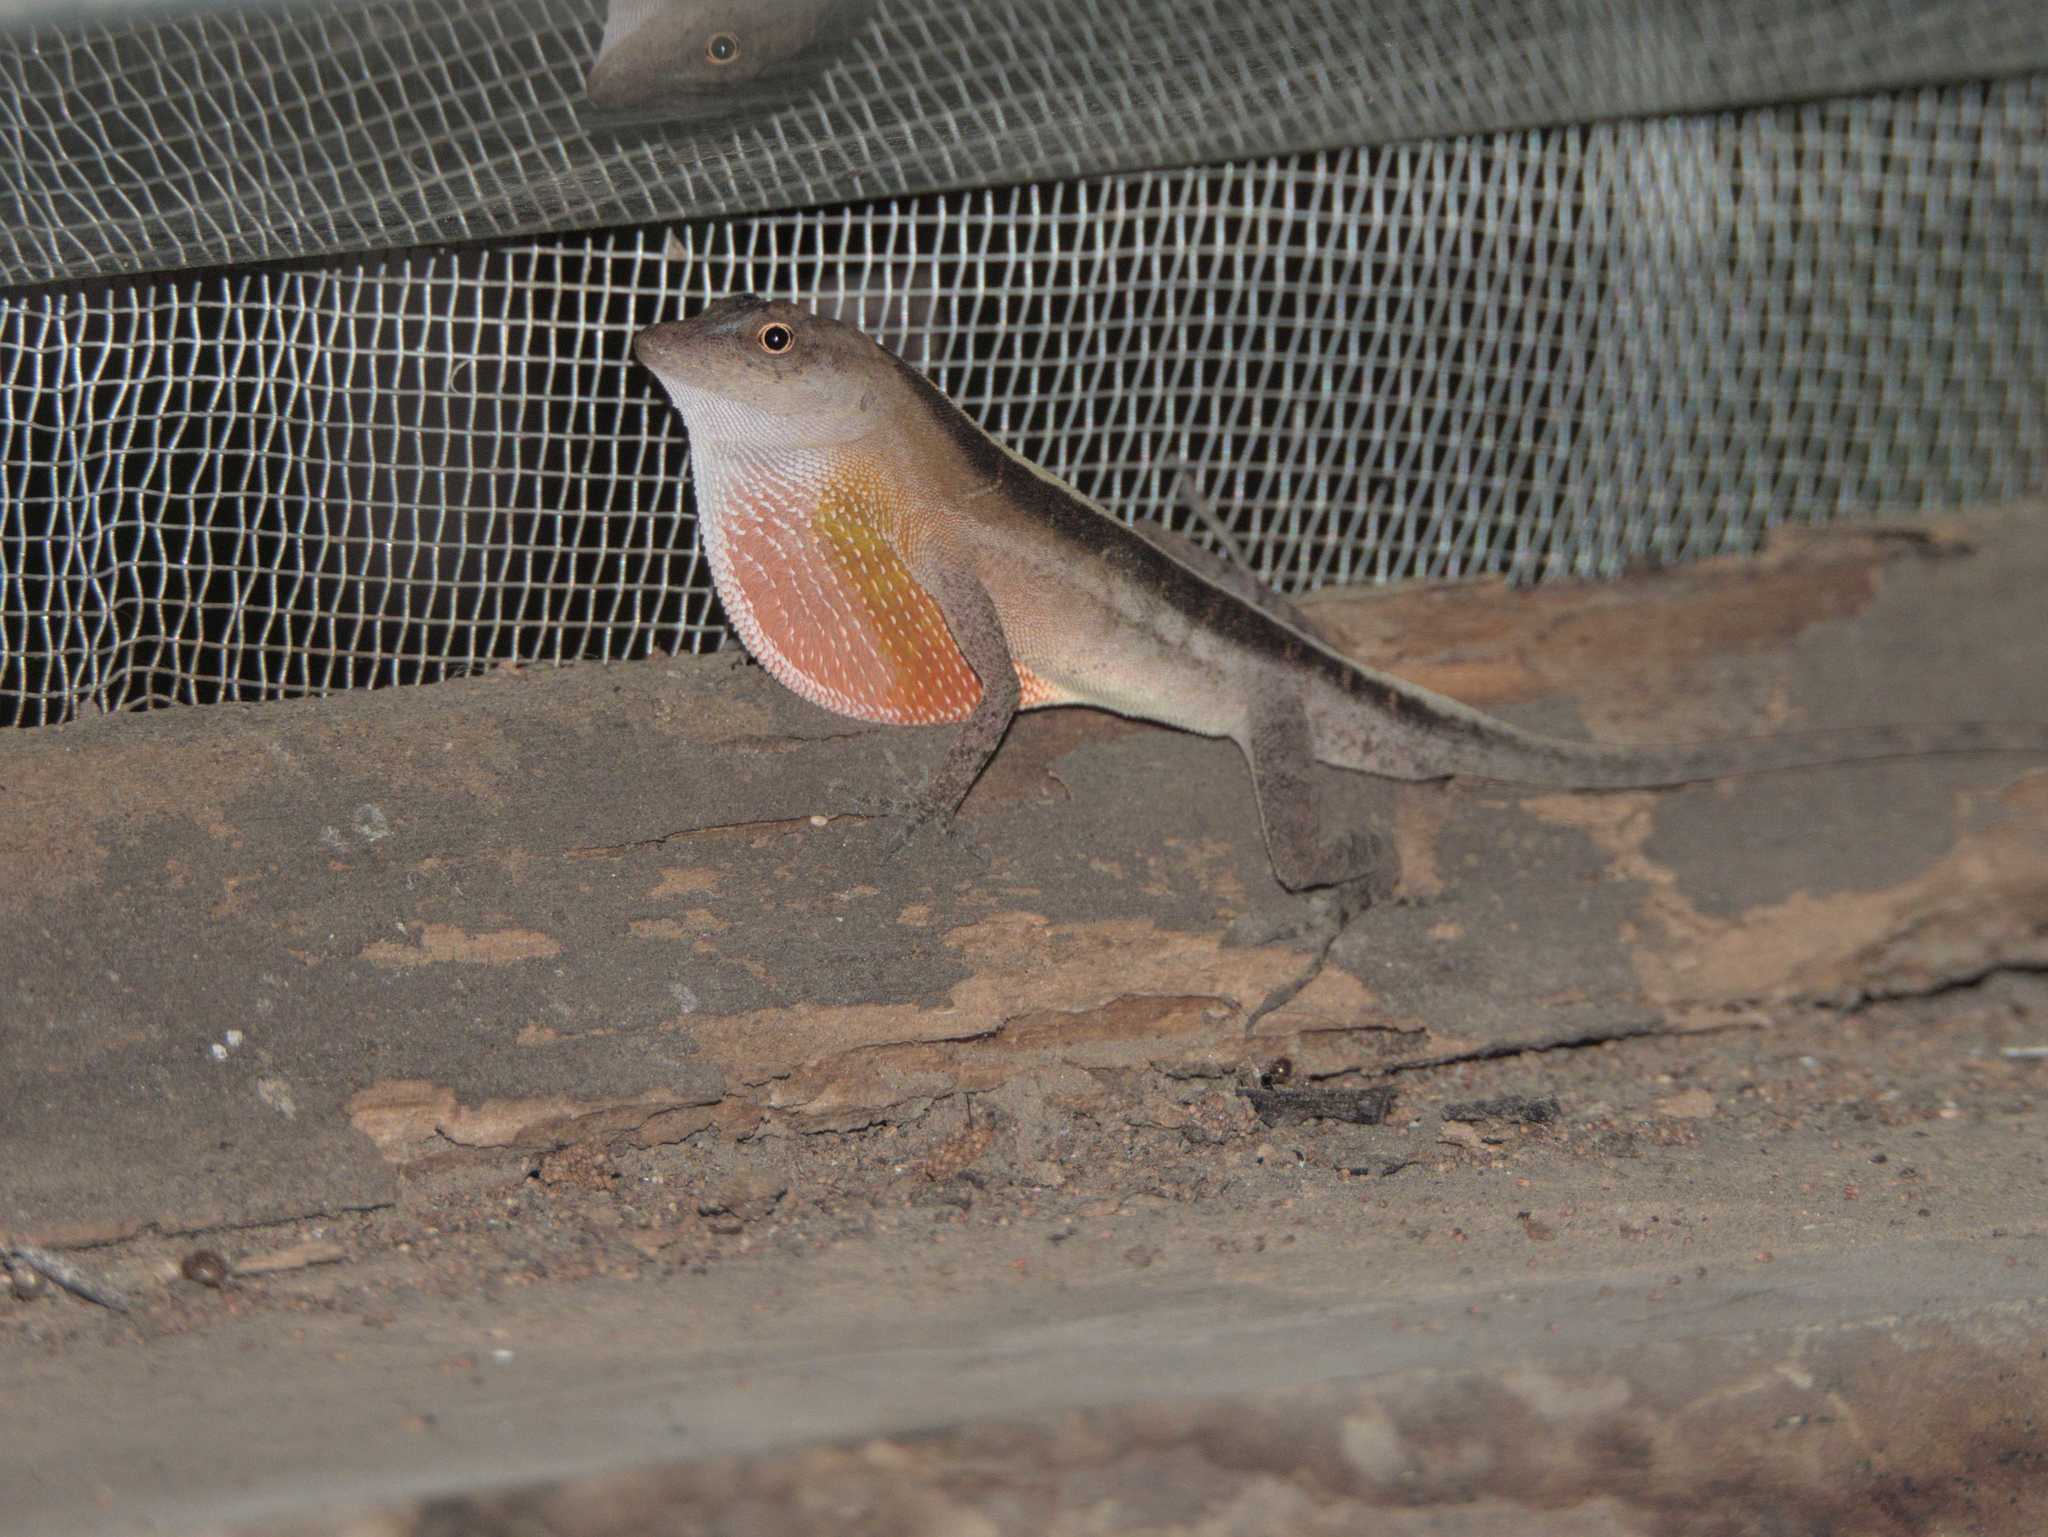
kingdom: Animalia
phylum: Chordata
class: Squamata
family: Dactyloidae
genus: Anolis
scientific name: Anolis cupreus
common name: Copper anole
